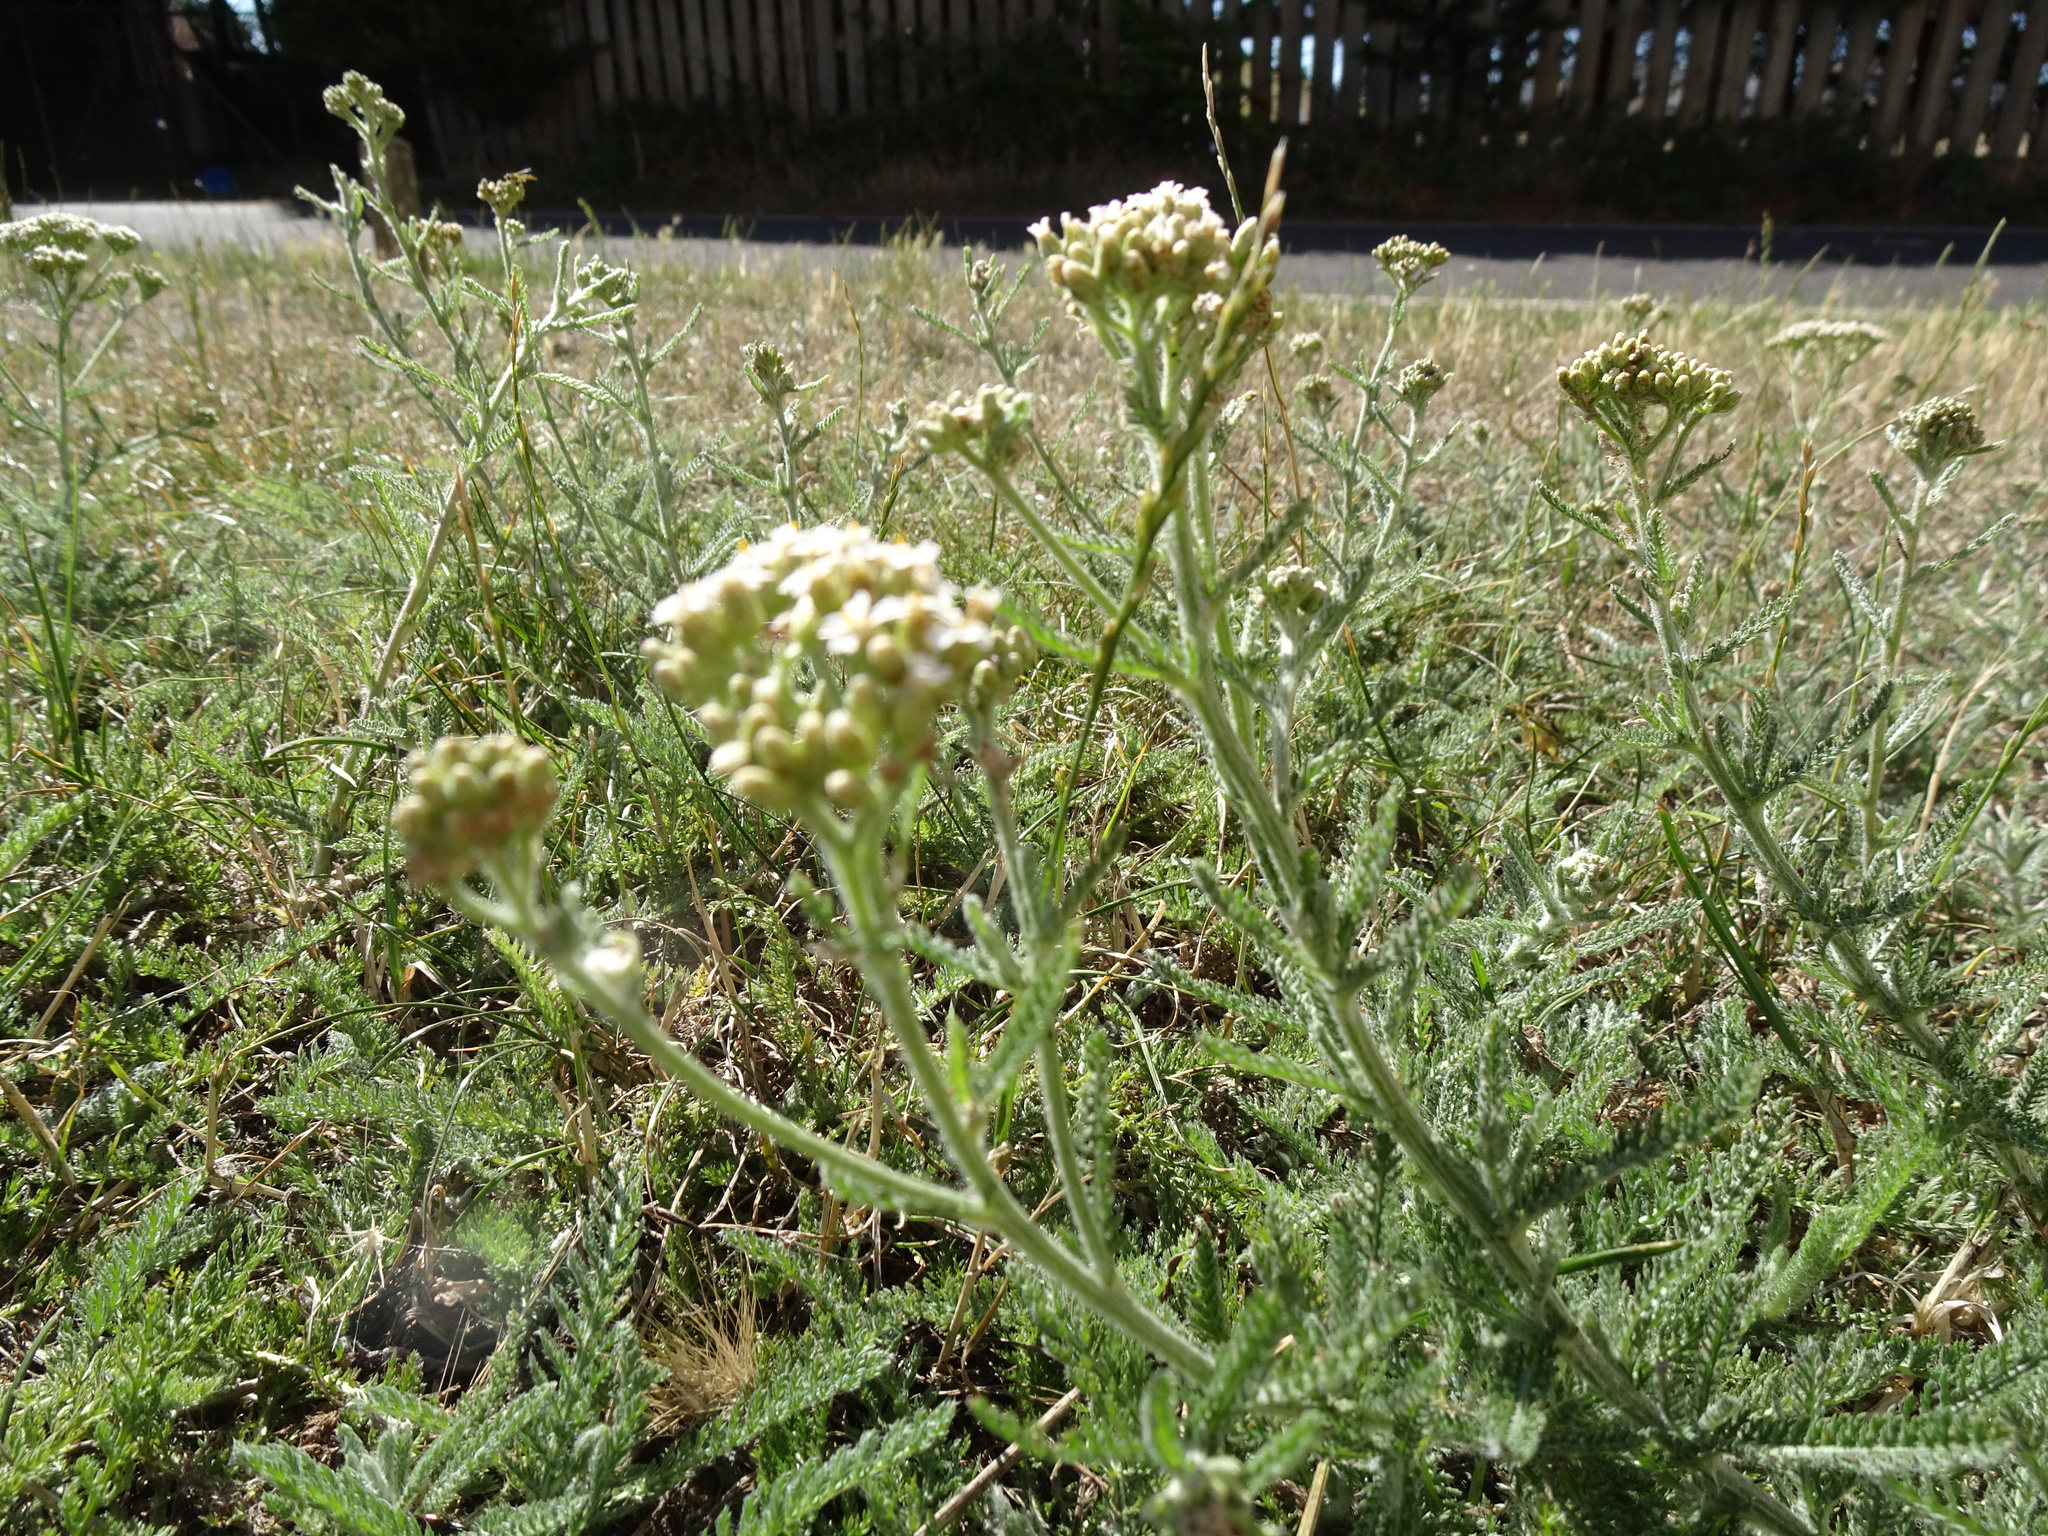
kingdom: Plantae
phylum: Tracheophyta
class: Magnoliopsida
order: Asterales
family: Asteraceae
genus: Achillea
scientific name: Achillea millefolium
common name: Yarrow
